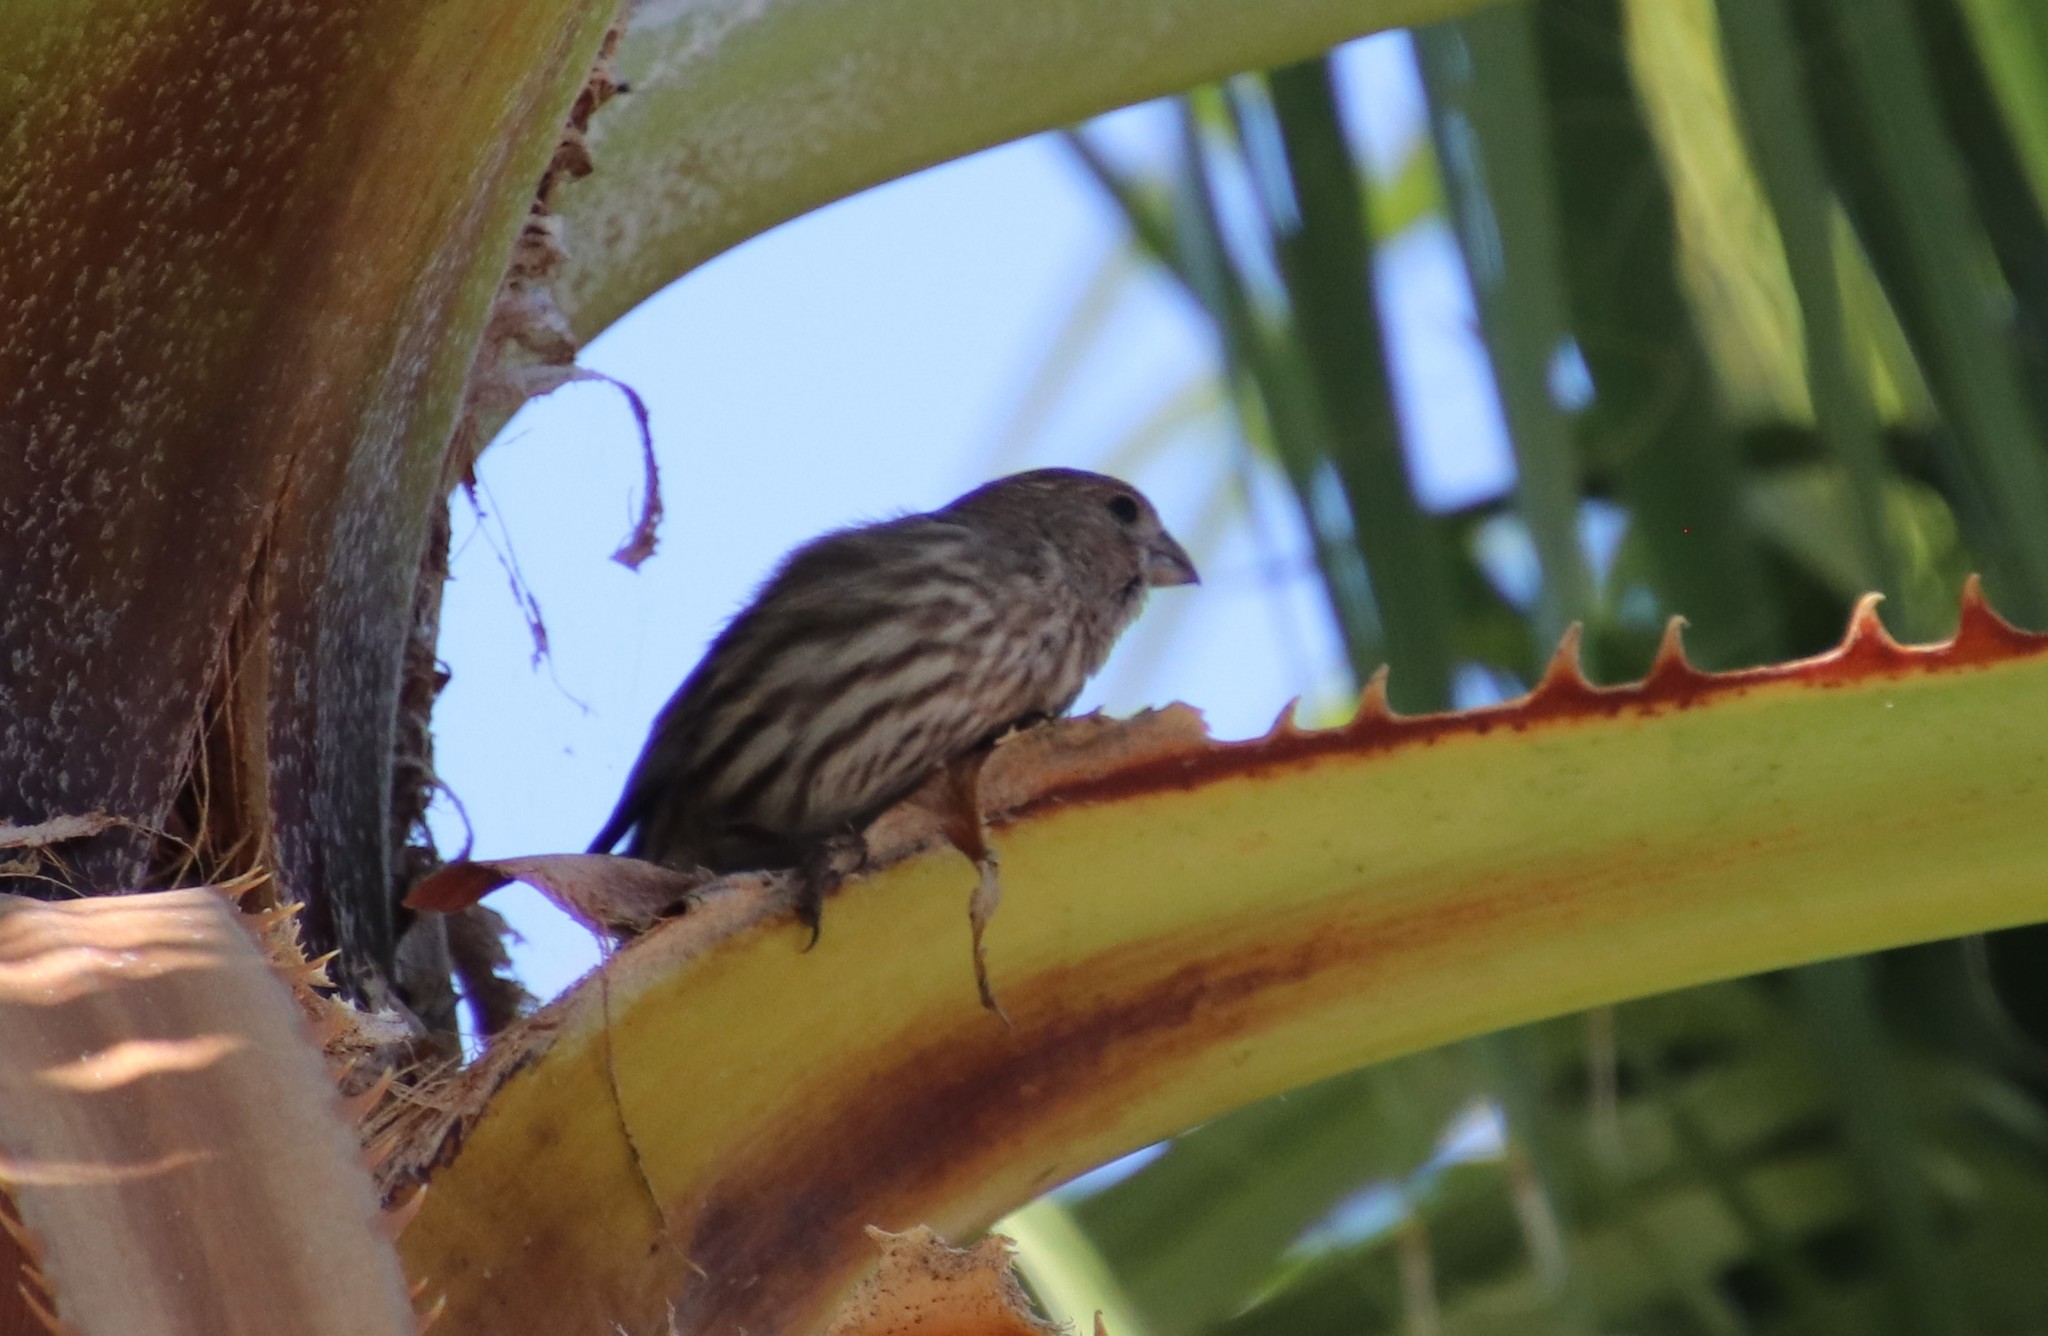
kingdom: Animalia
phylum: Chordata
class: Aves
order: Passeriformes
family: Fringillidae
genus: Haemorhous
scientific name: Haemorhous mexicanus
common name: House finch
